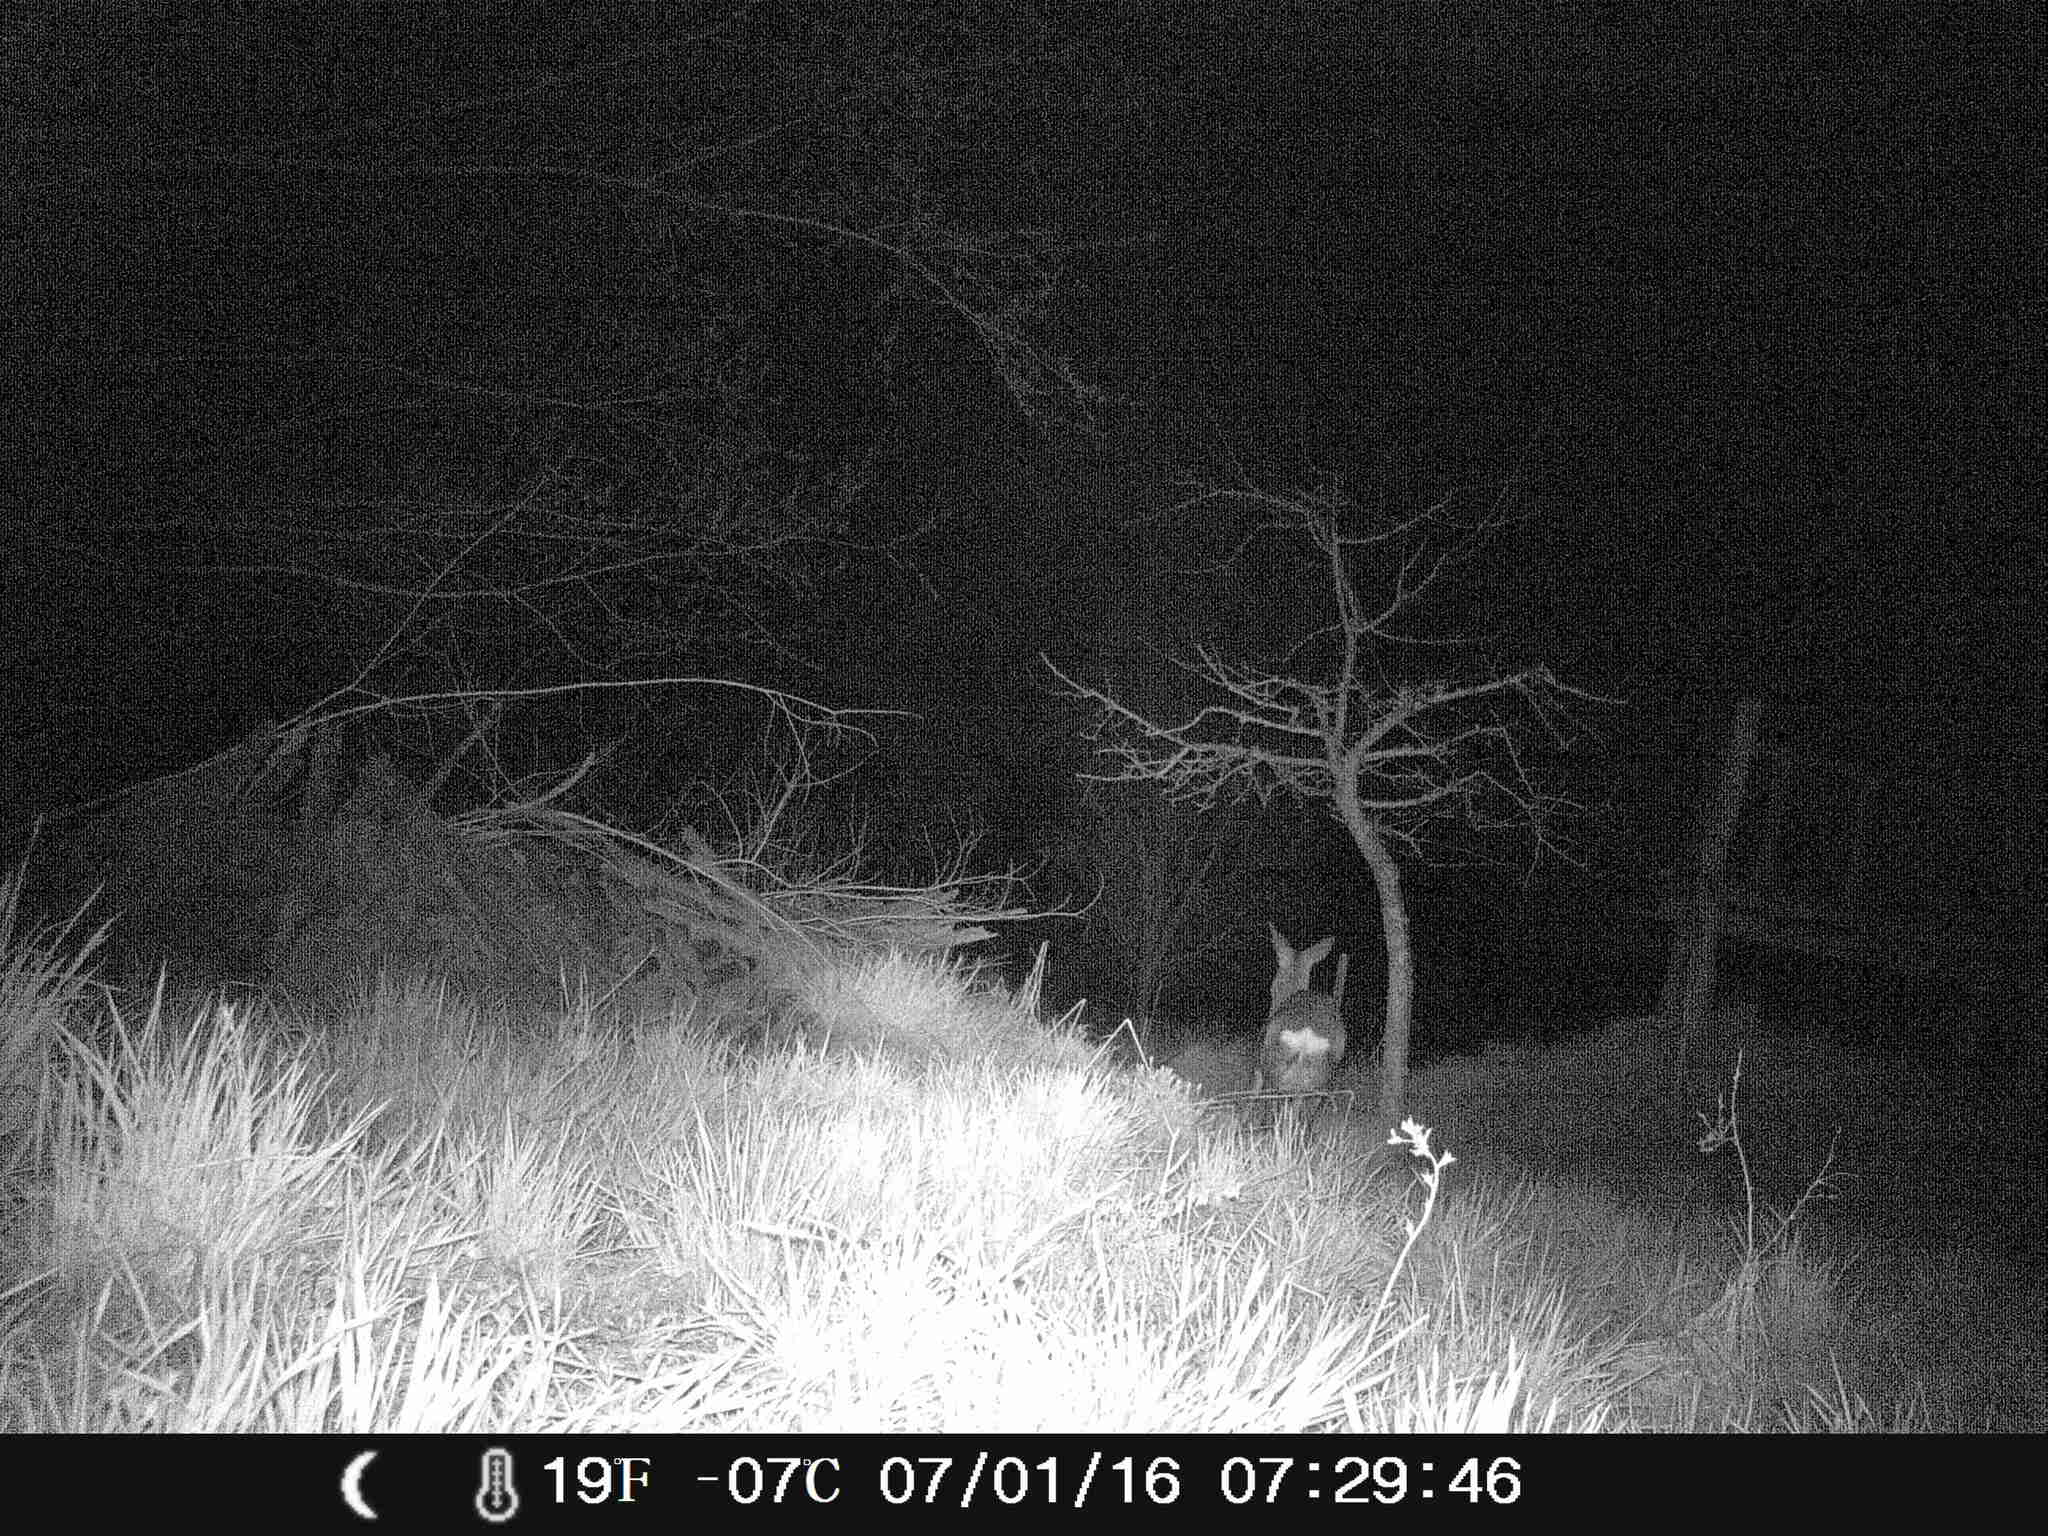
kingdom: Animalia
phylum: Chordata
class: Mammalia
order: Artiodactyla
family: Cervidae
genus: Capreolus
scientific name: Capreolus capreolus
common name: Western roe deer
